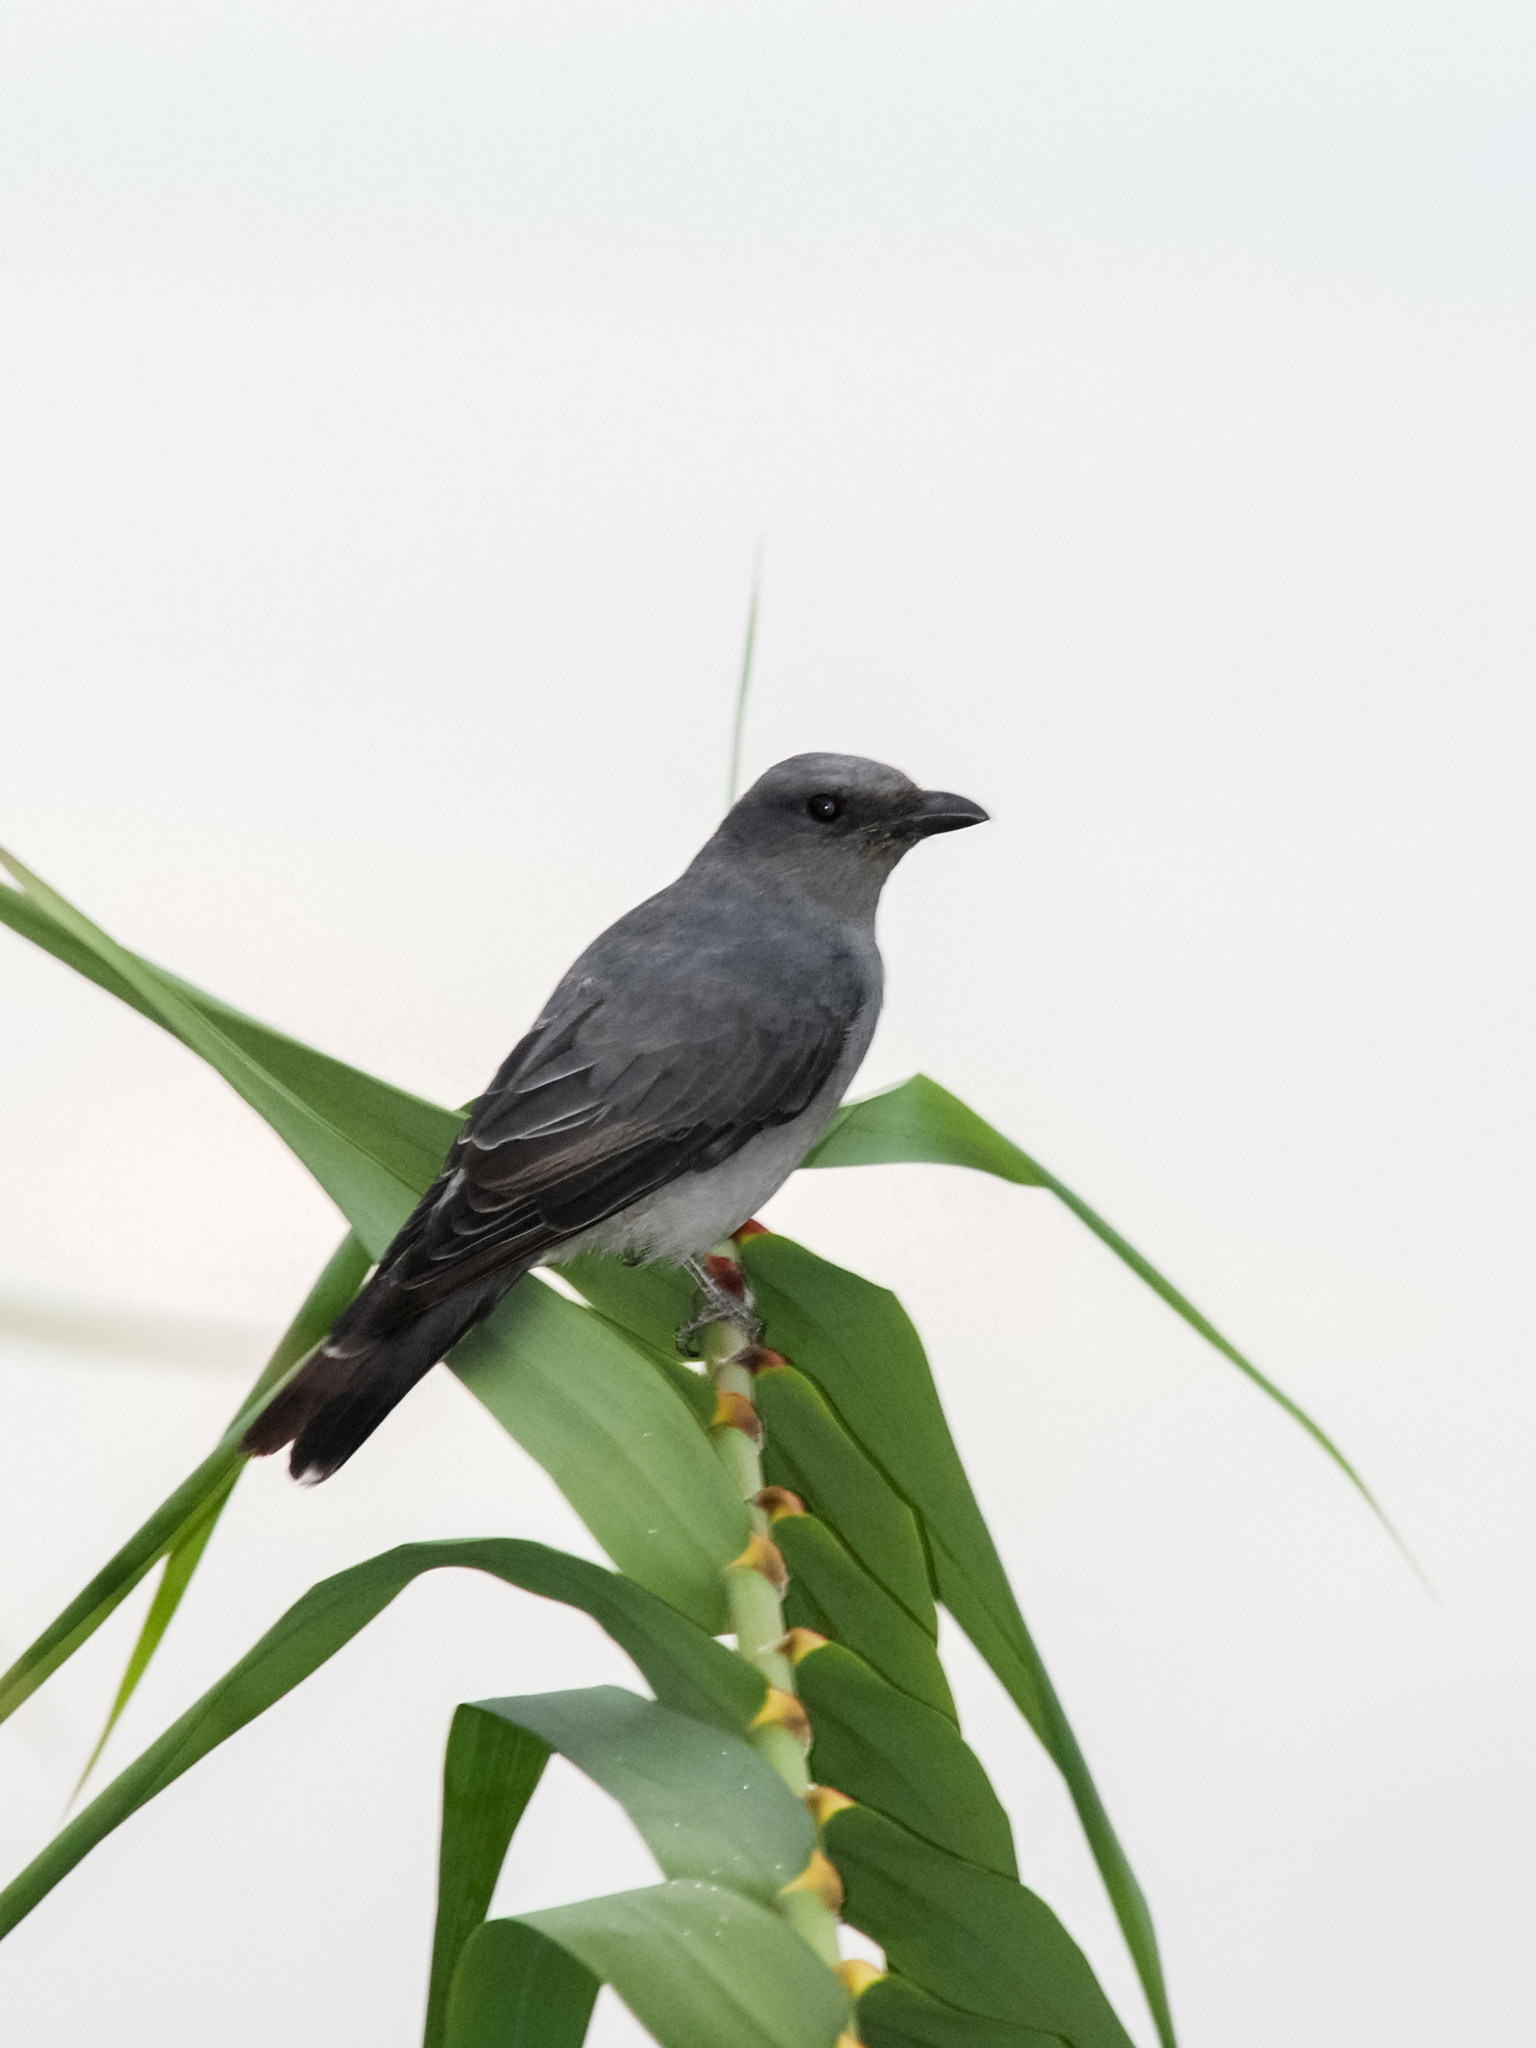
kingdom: Animalia
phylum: Chordata
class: Aves
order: Passeriformes
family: Campephagidae
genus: Coracina
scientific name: Coracina macei
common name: Large cuckooshrike
